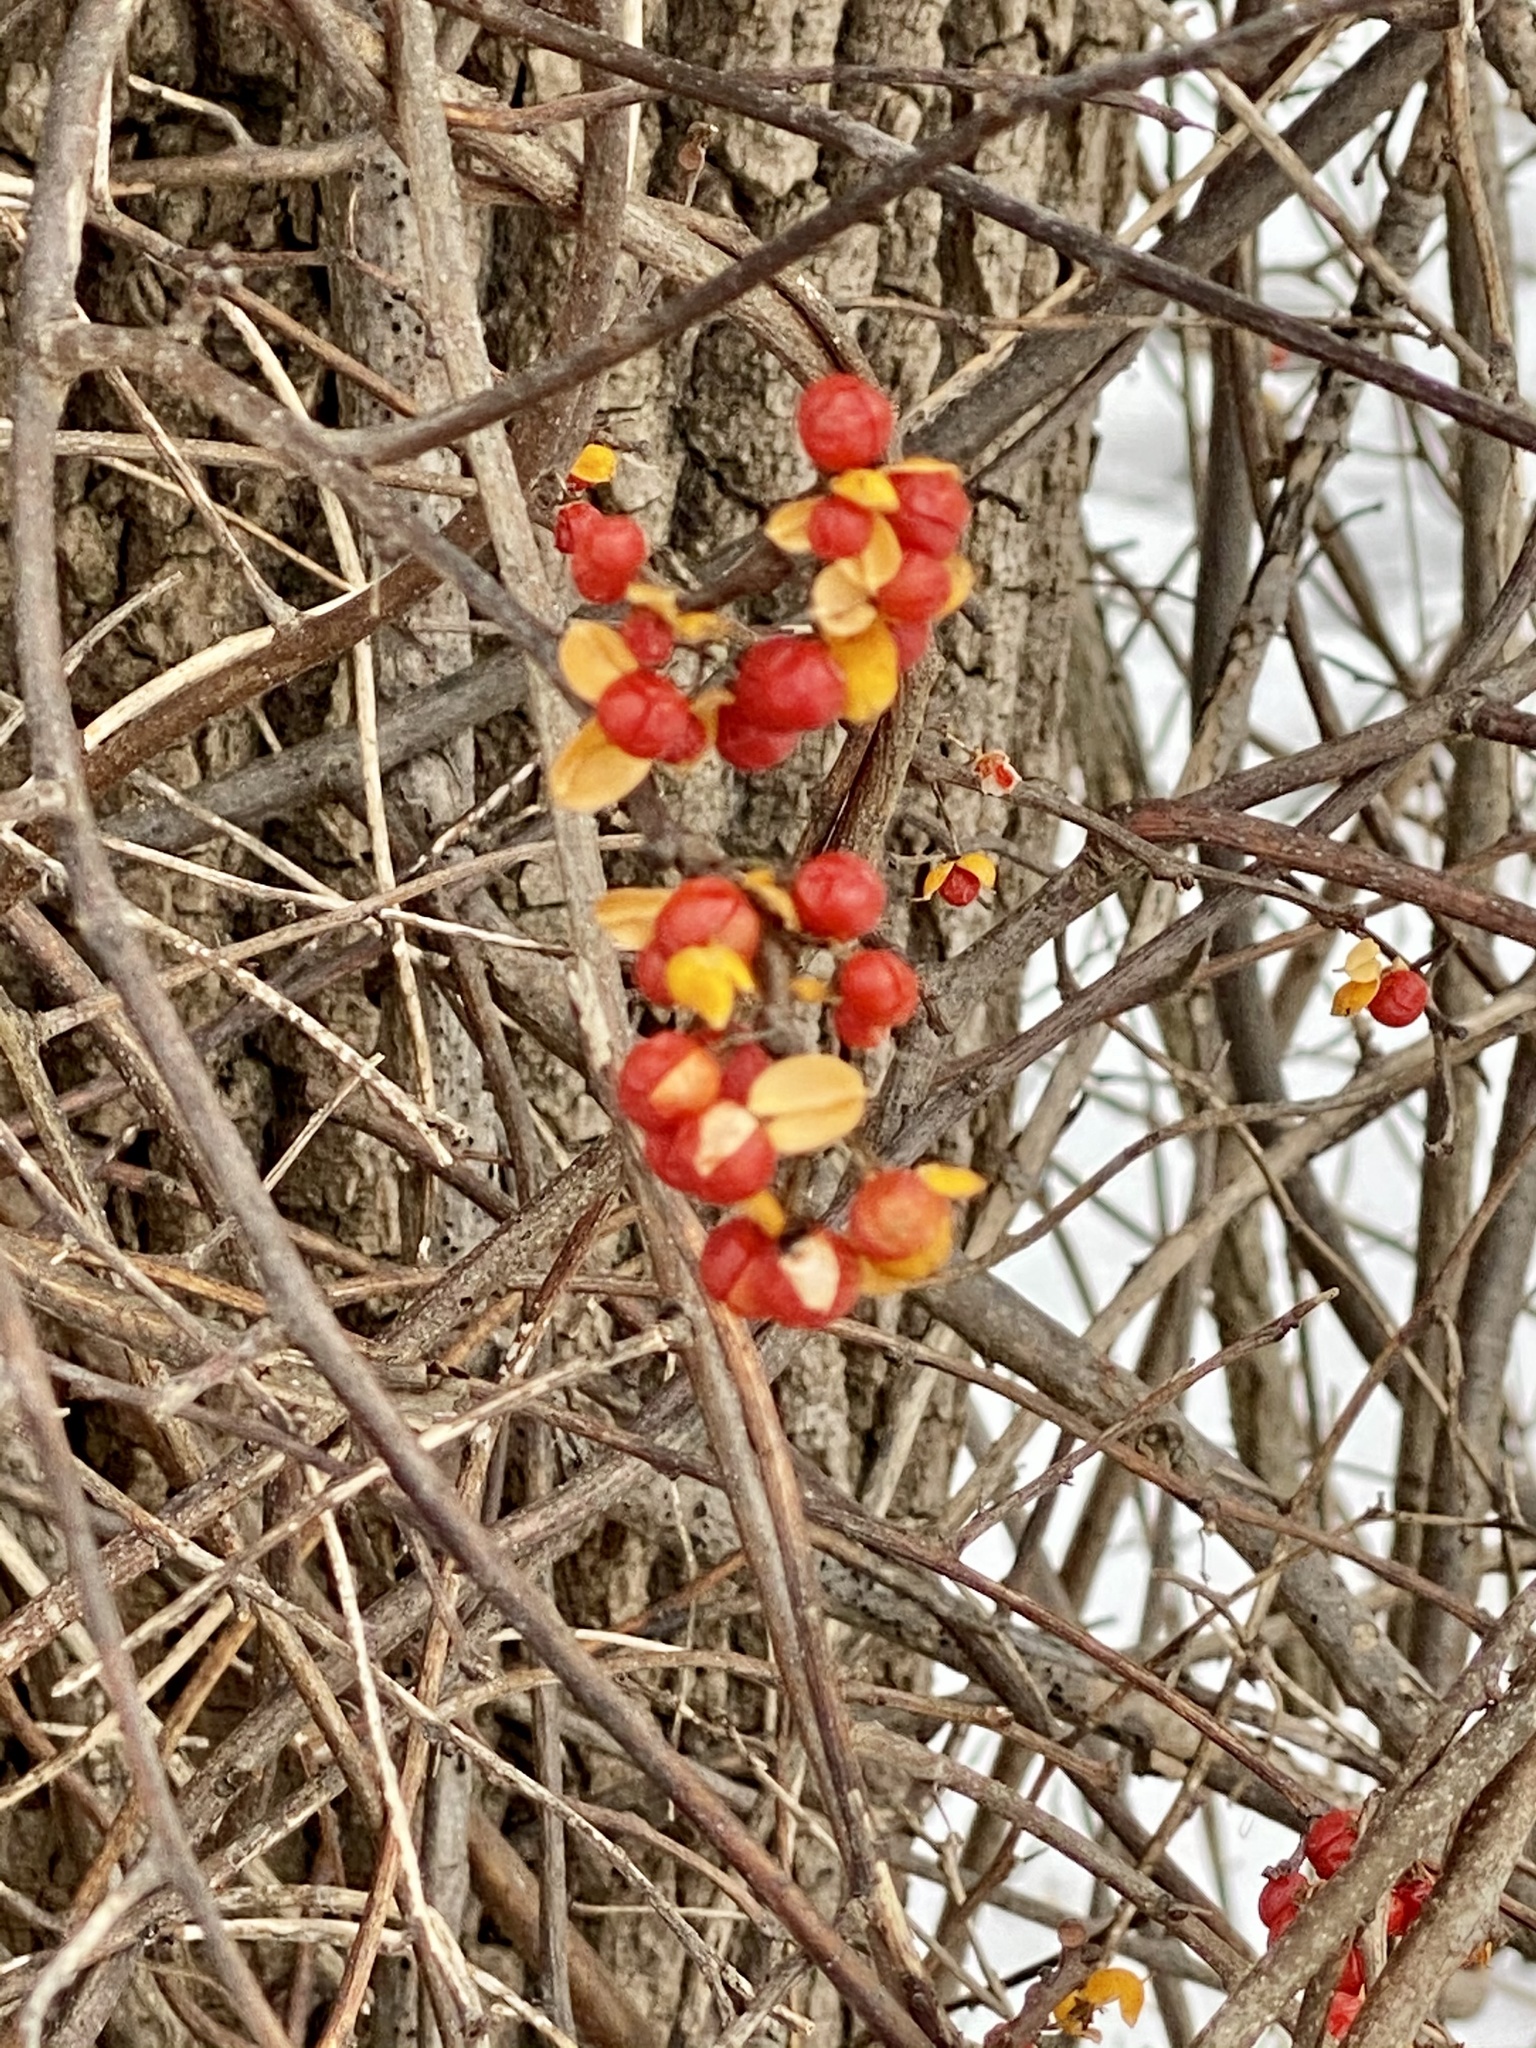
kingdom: Plantae
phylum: Tracheophyta
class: Magnoliopsida
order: Celastrales
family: Celastraceae
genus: Celastrus
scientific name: Celastrus orbiculatus
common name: Oriental bittersweet
